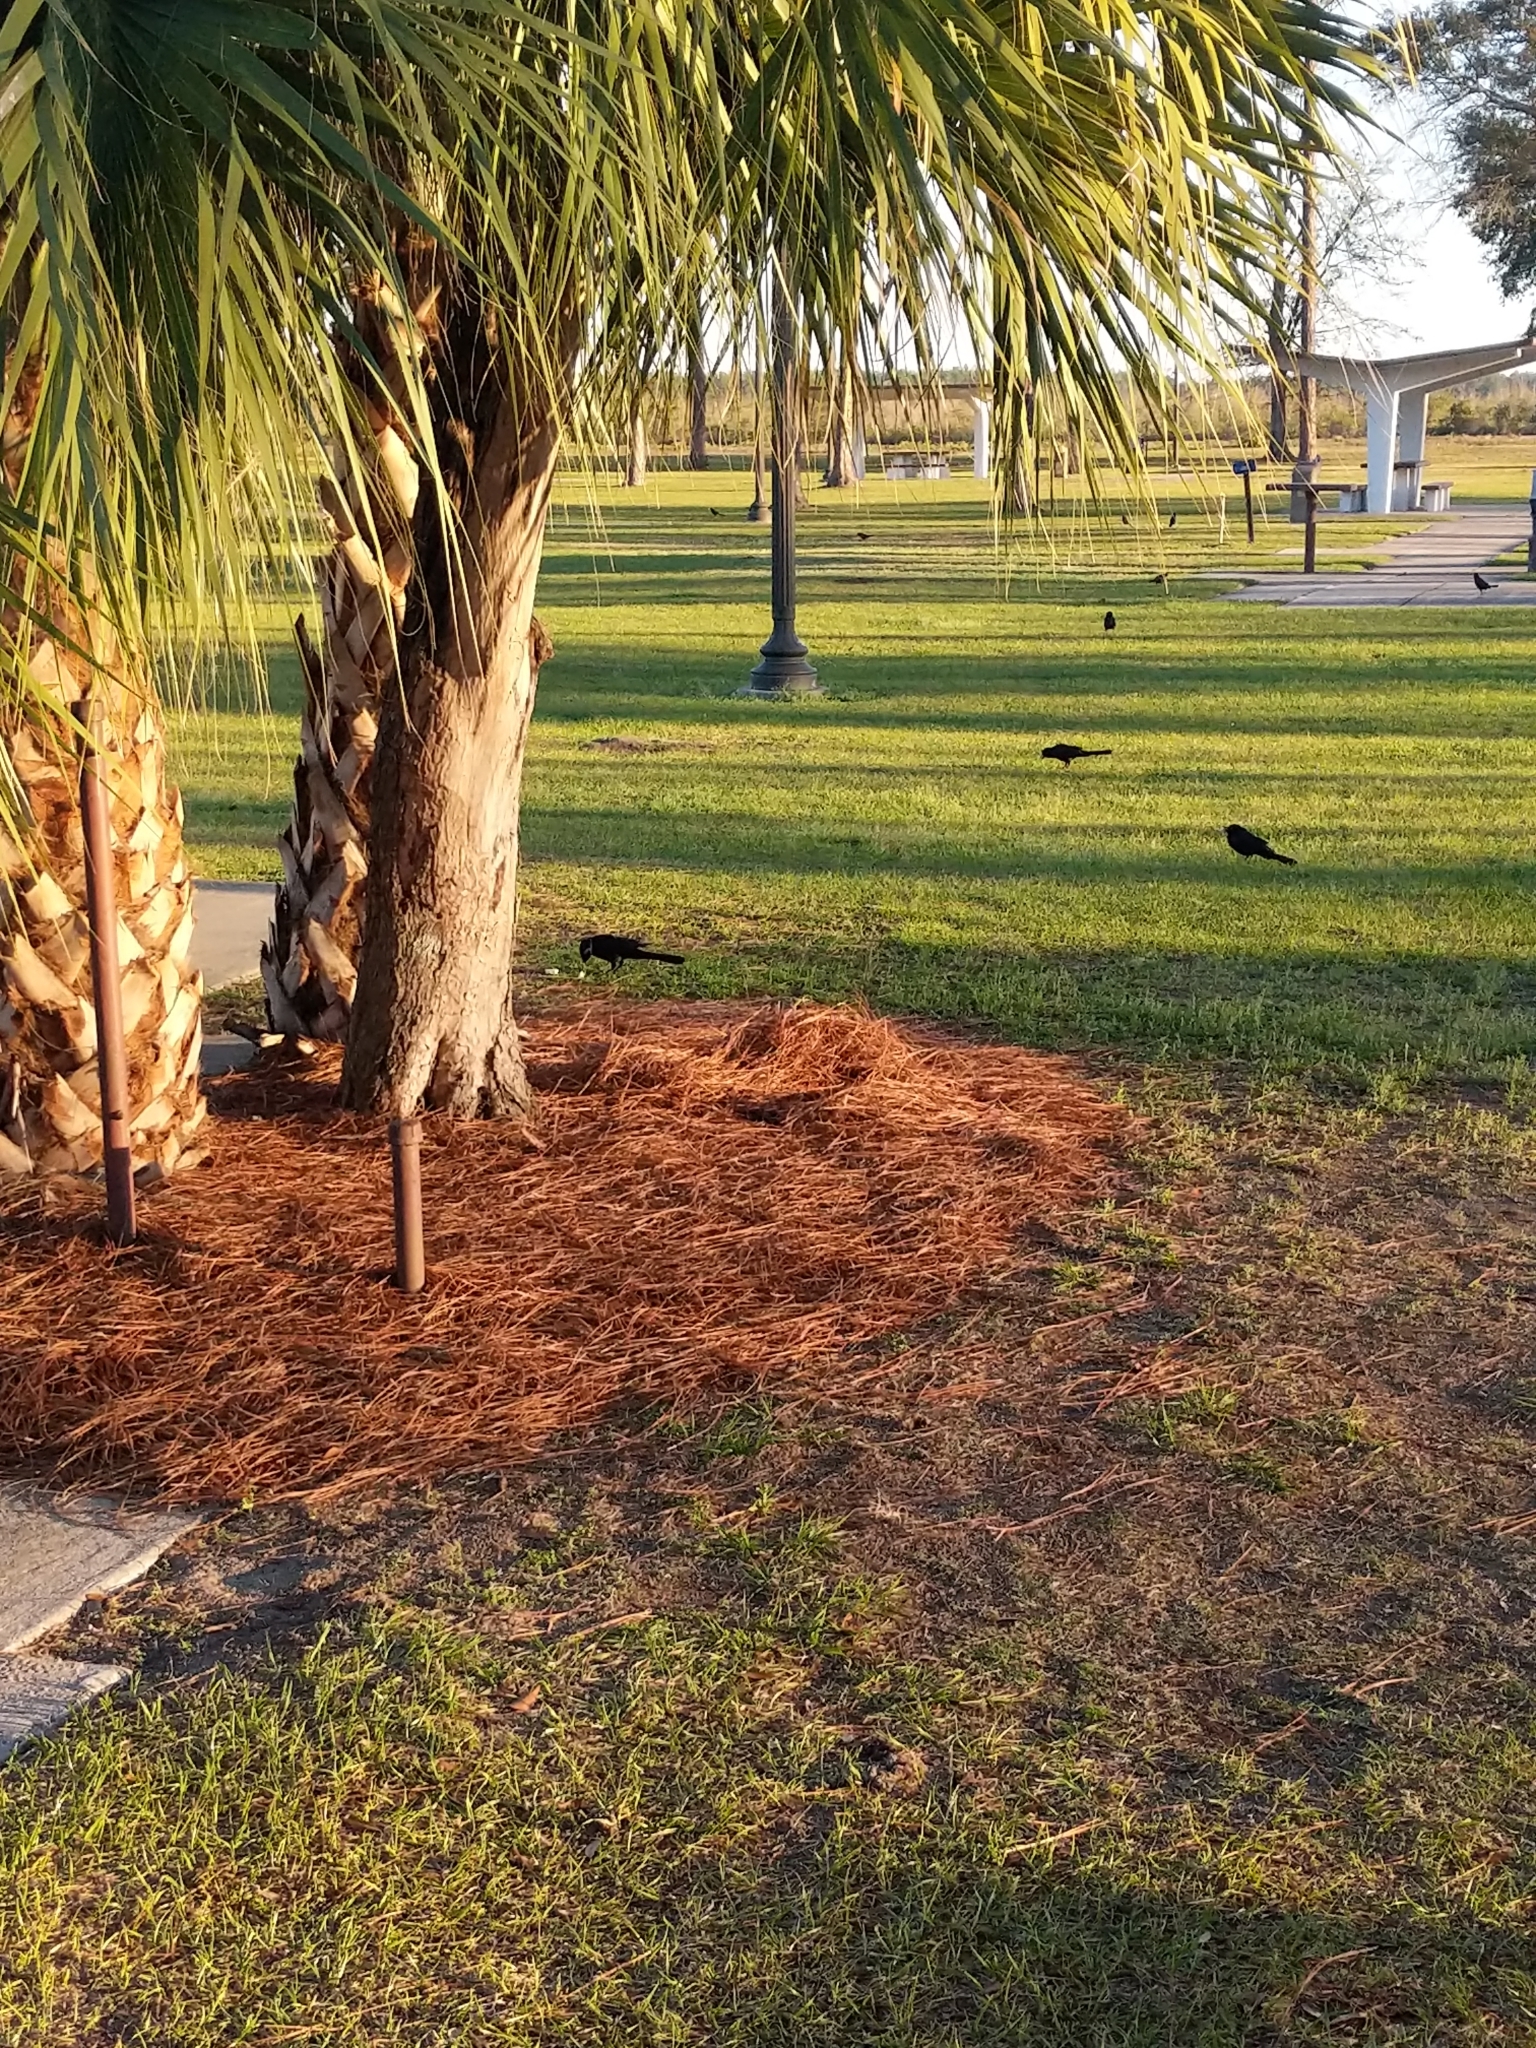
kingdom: Animalia
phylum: Chordata
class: Aves
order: Passeriformes
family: Icteridae
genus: Quiscalus
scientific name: Quiscalus major
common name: Boat-tailed grackle
